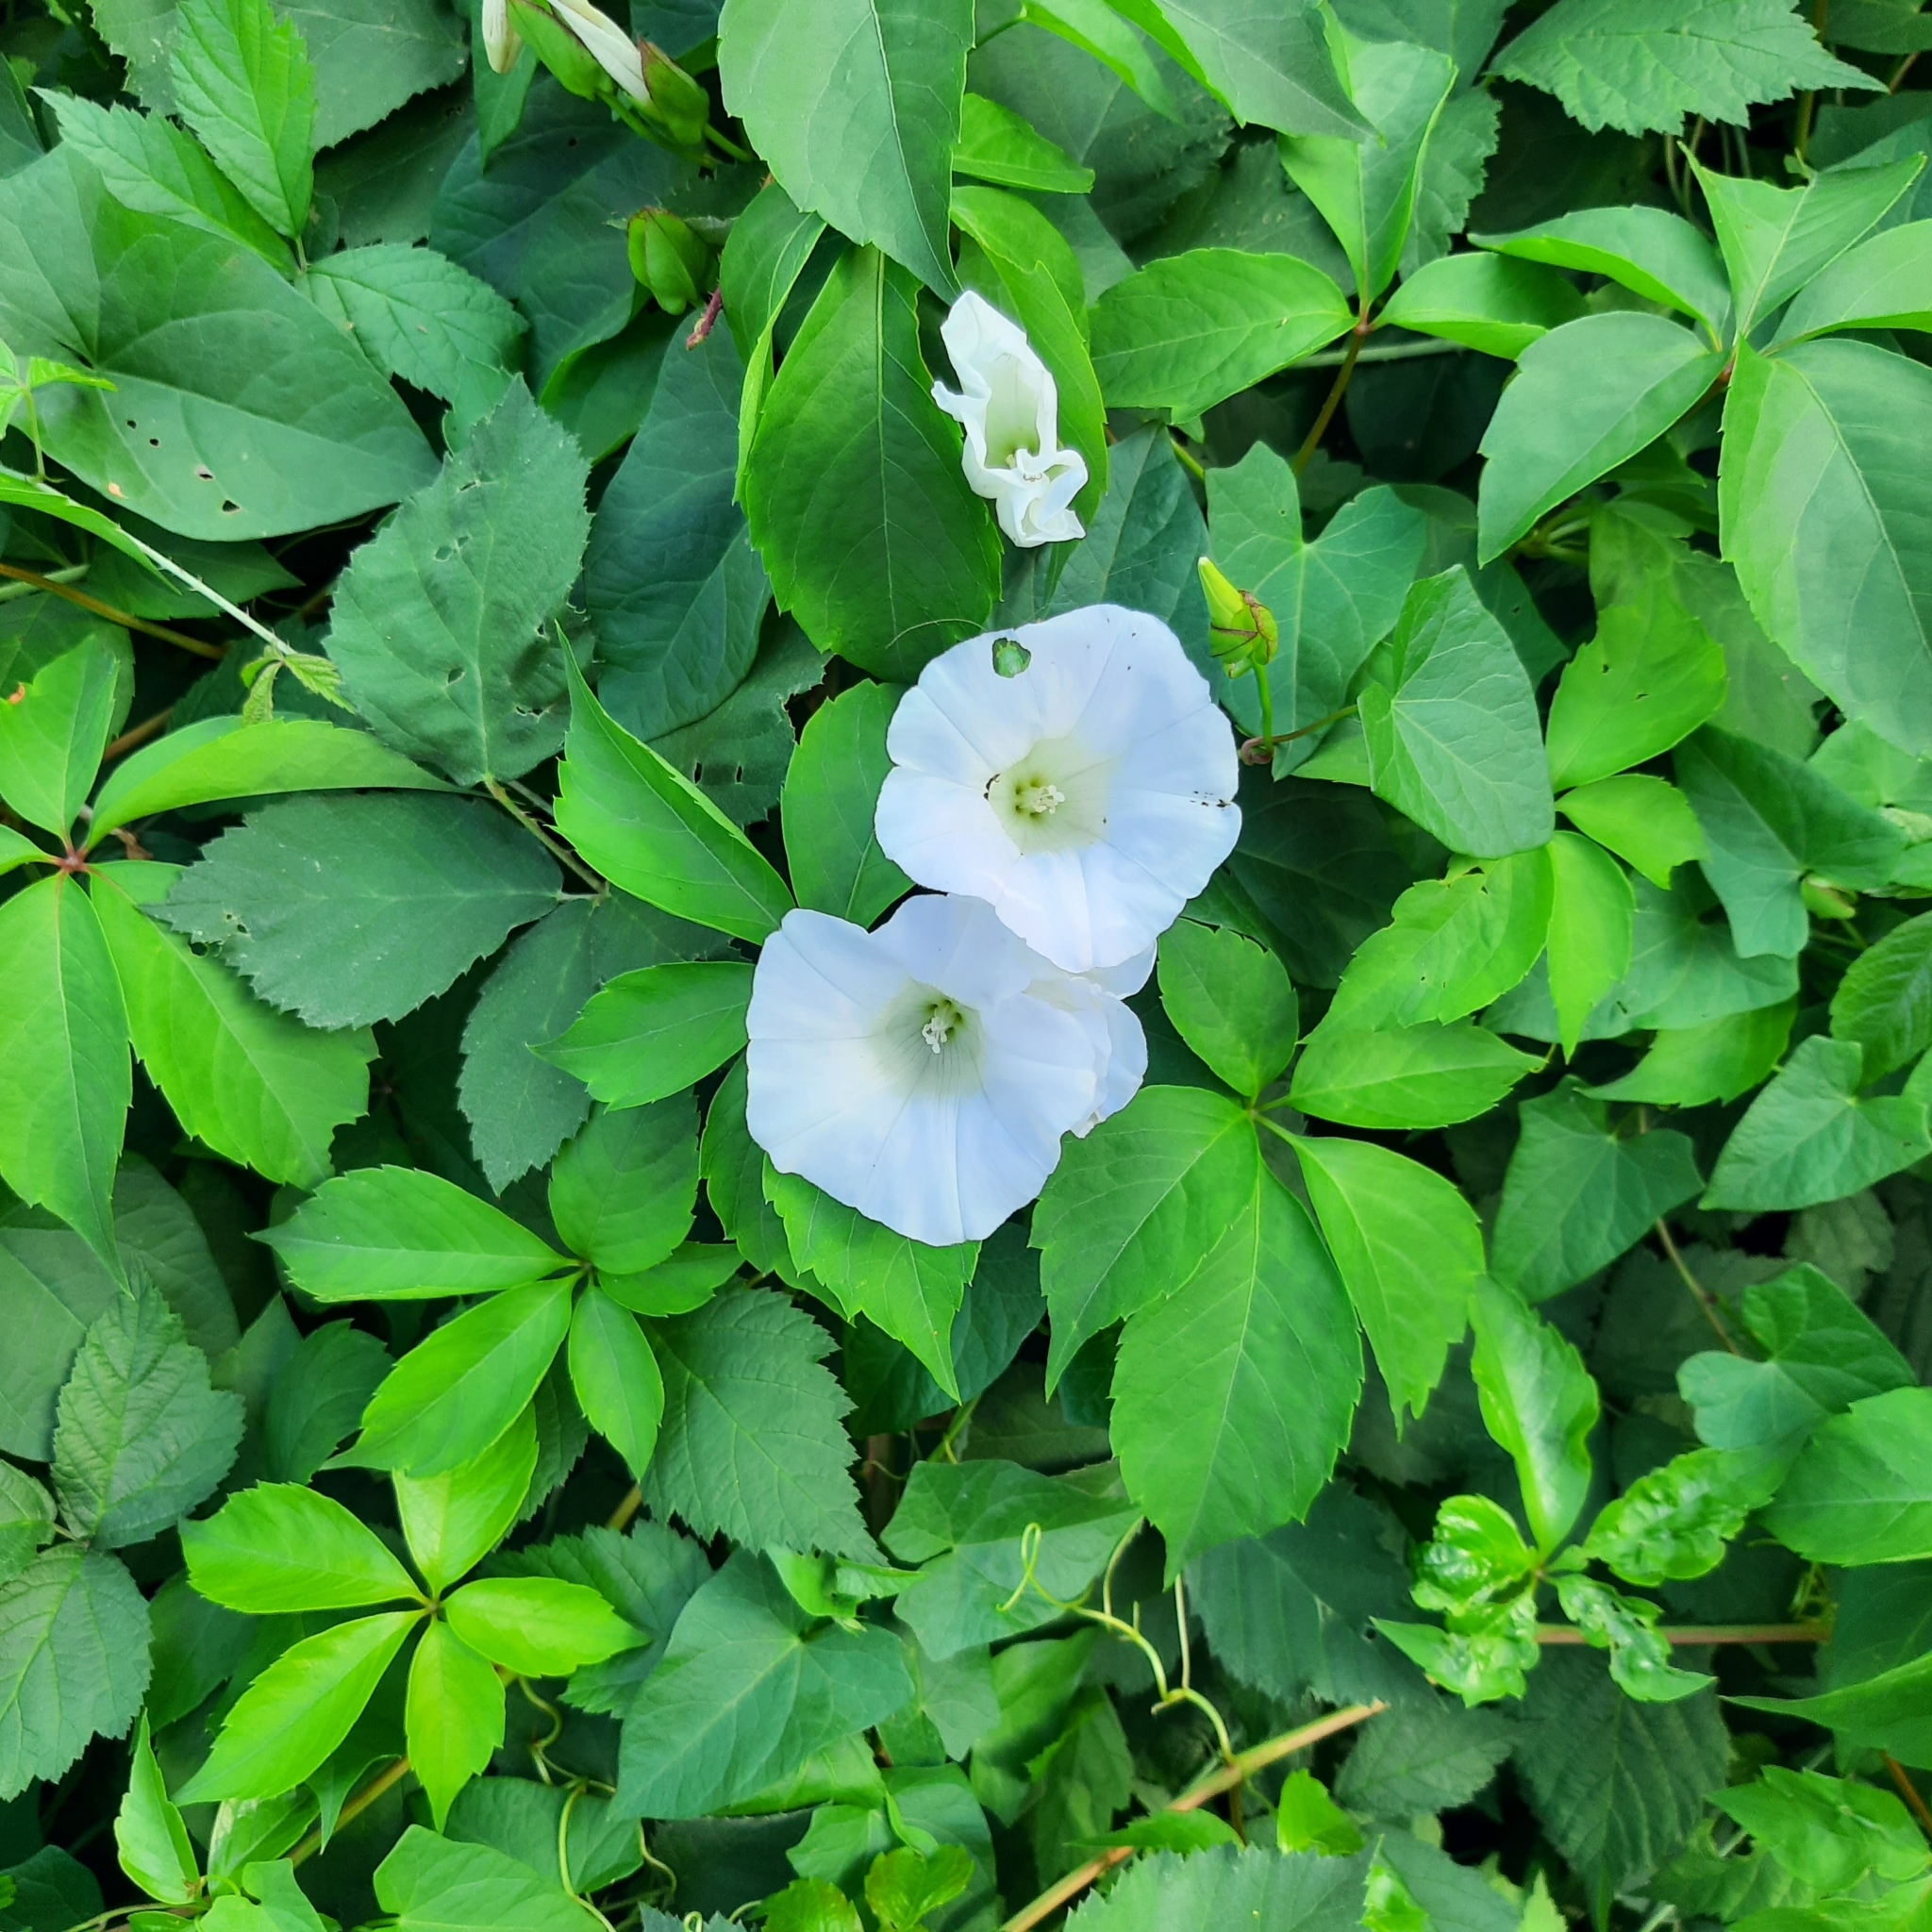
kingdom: Plantae
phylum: Tracheophyta
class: Magnoliopsida
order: Solanales
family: Convolvulaceae
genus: Calystegia
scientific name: Calystegia sepium
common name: Hedge bindweed
